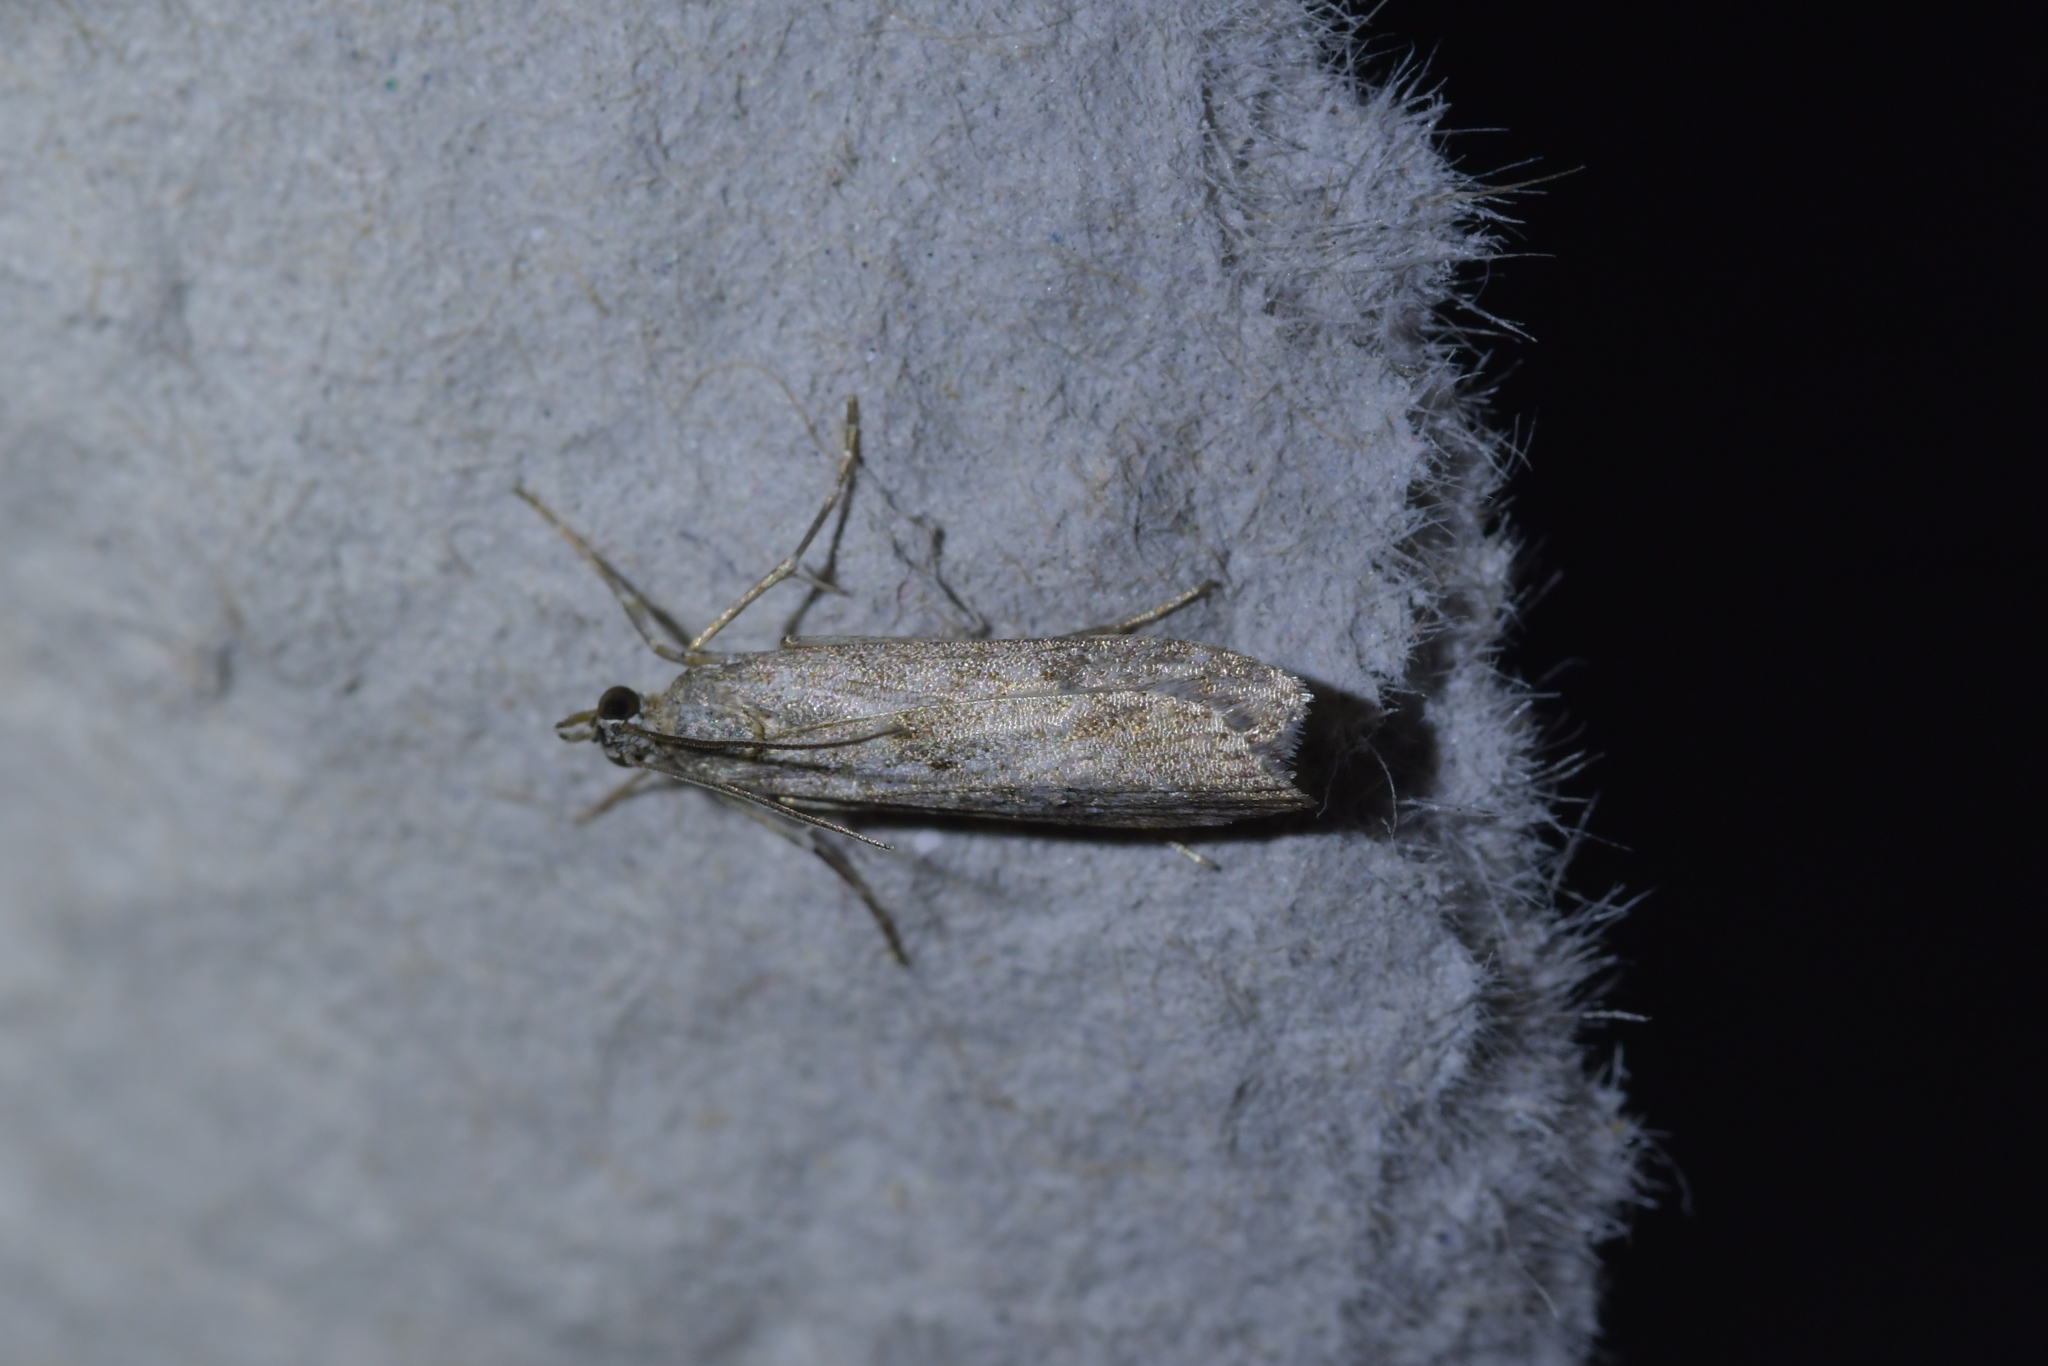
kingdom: Animalia
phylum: Arthropoda
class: Insecta
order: Lepidoptera
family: Crambidae
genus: Eudonia
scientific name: Eudonia leptalea
